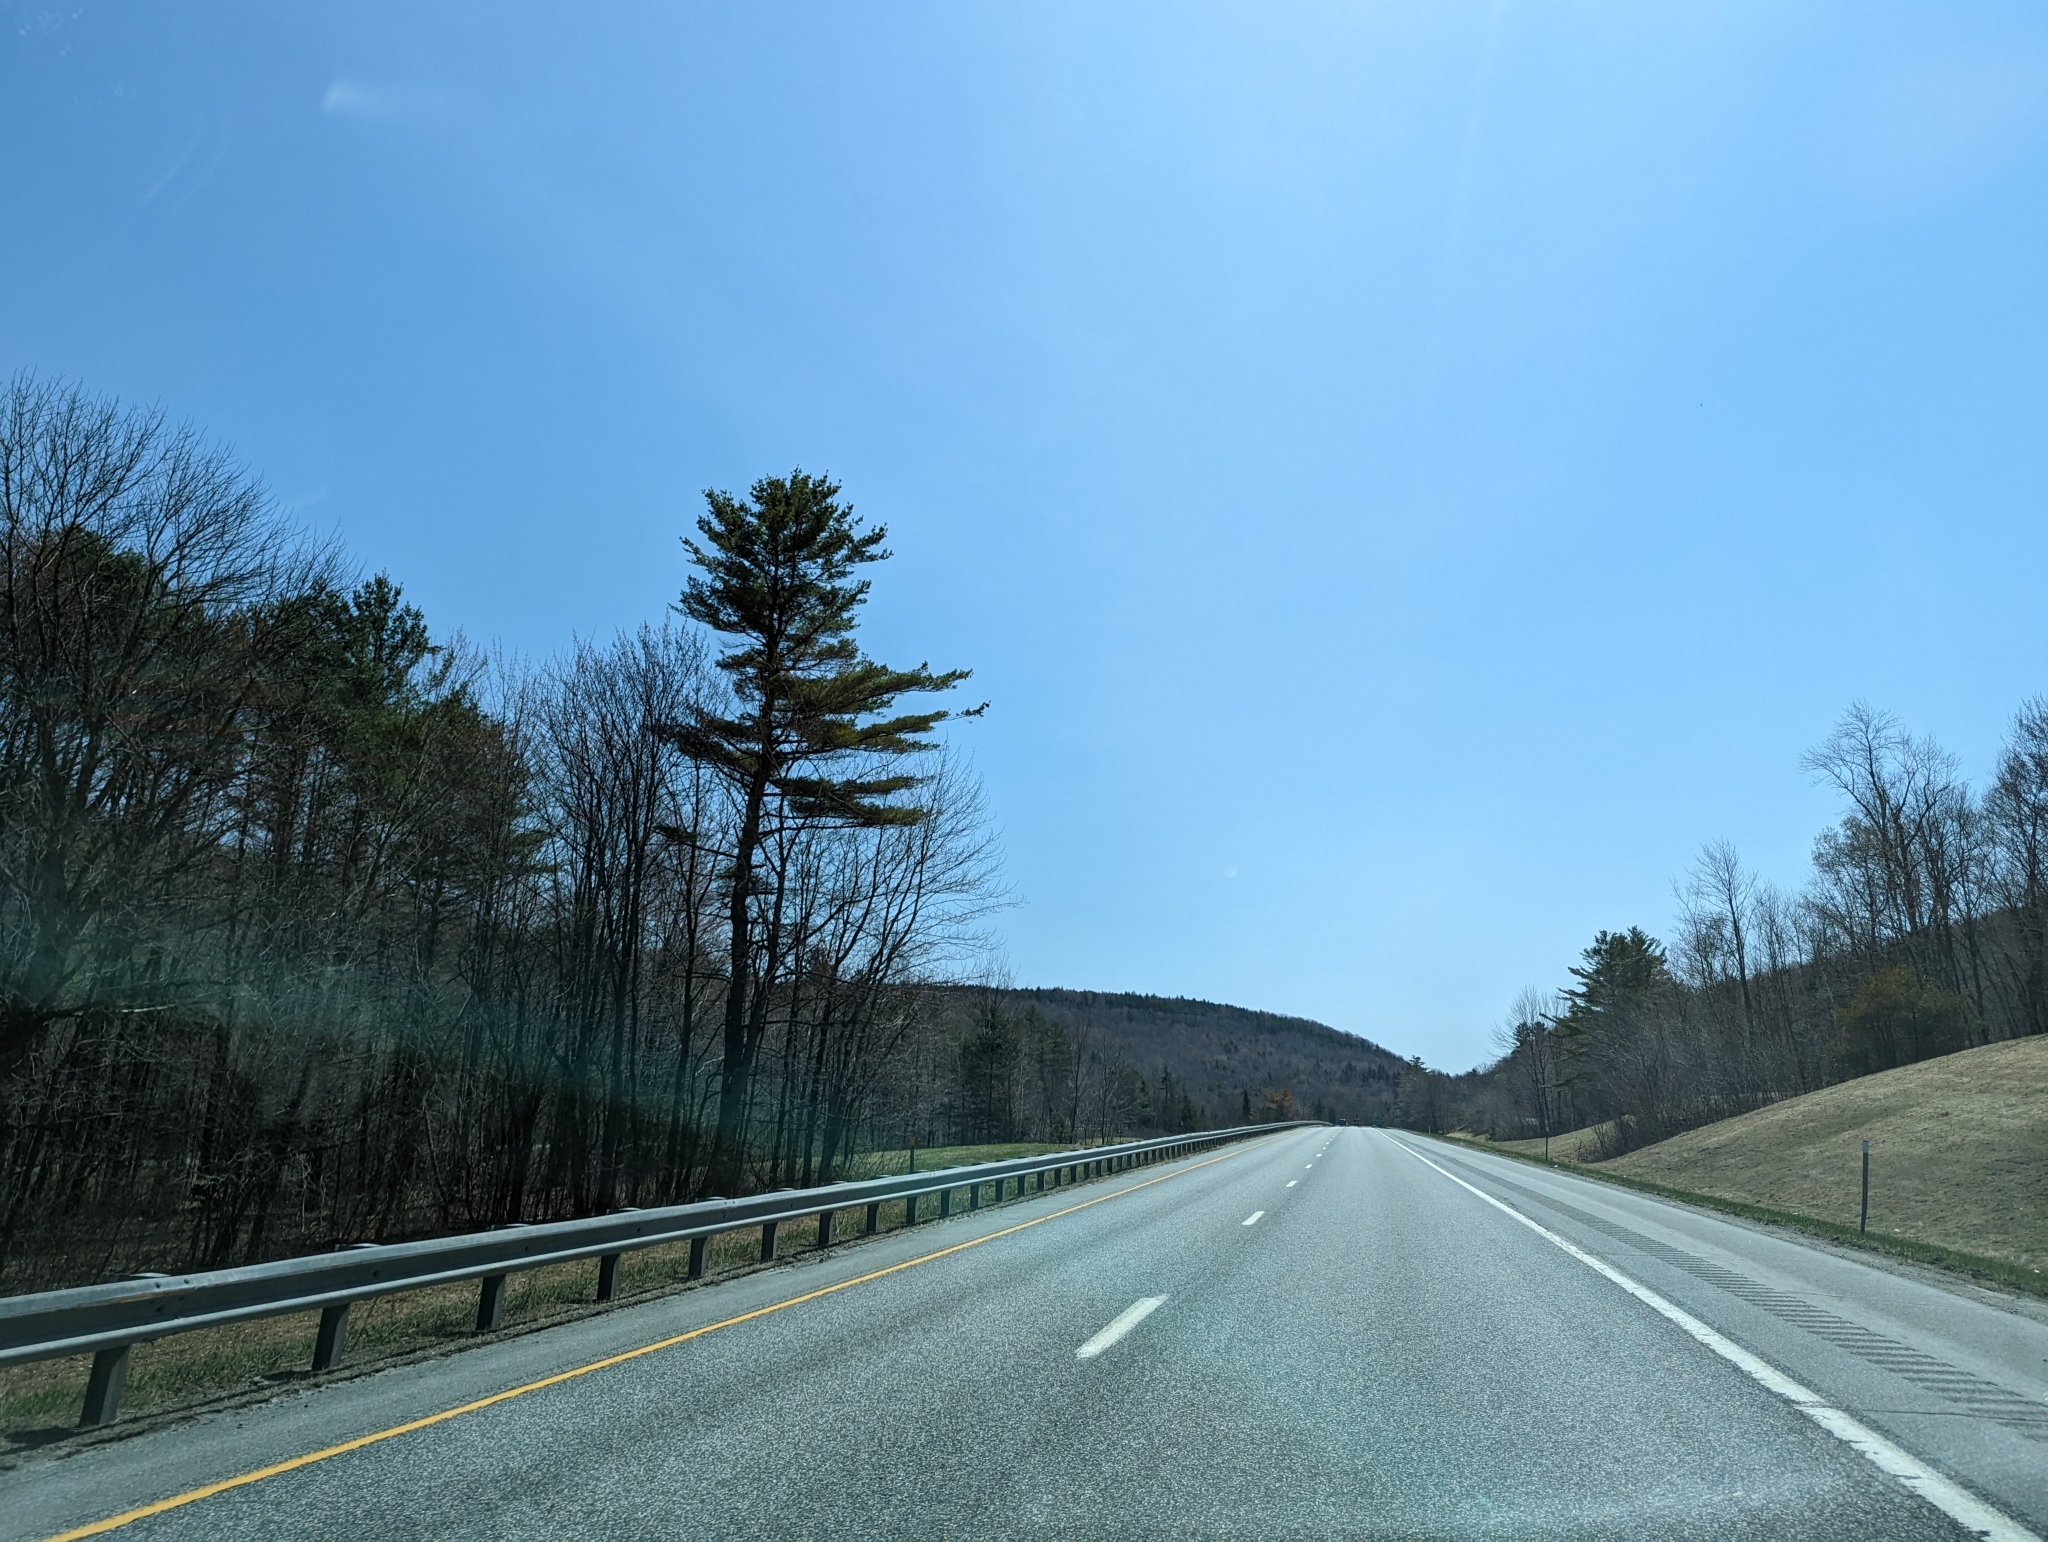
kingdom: Plantae
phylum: Tracheophyta
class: Pinopsida
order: Pinales
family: Pinaceae
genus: Pinus
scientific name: Pinus strobus
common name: Weymouth pine
